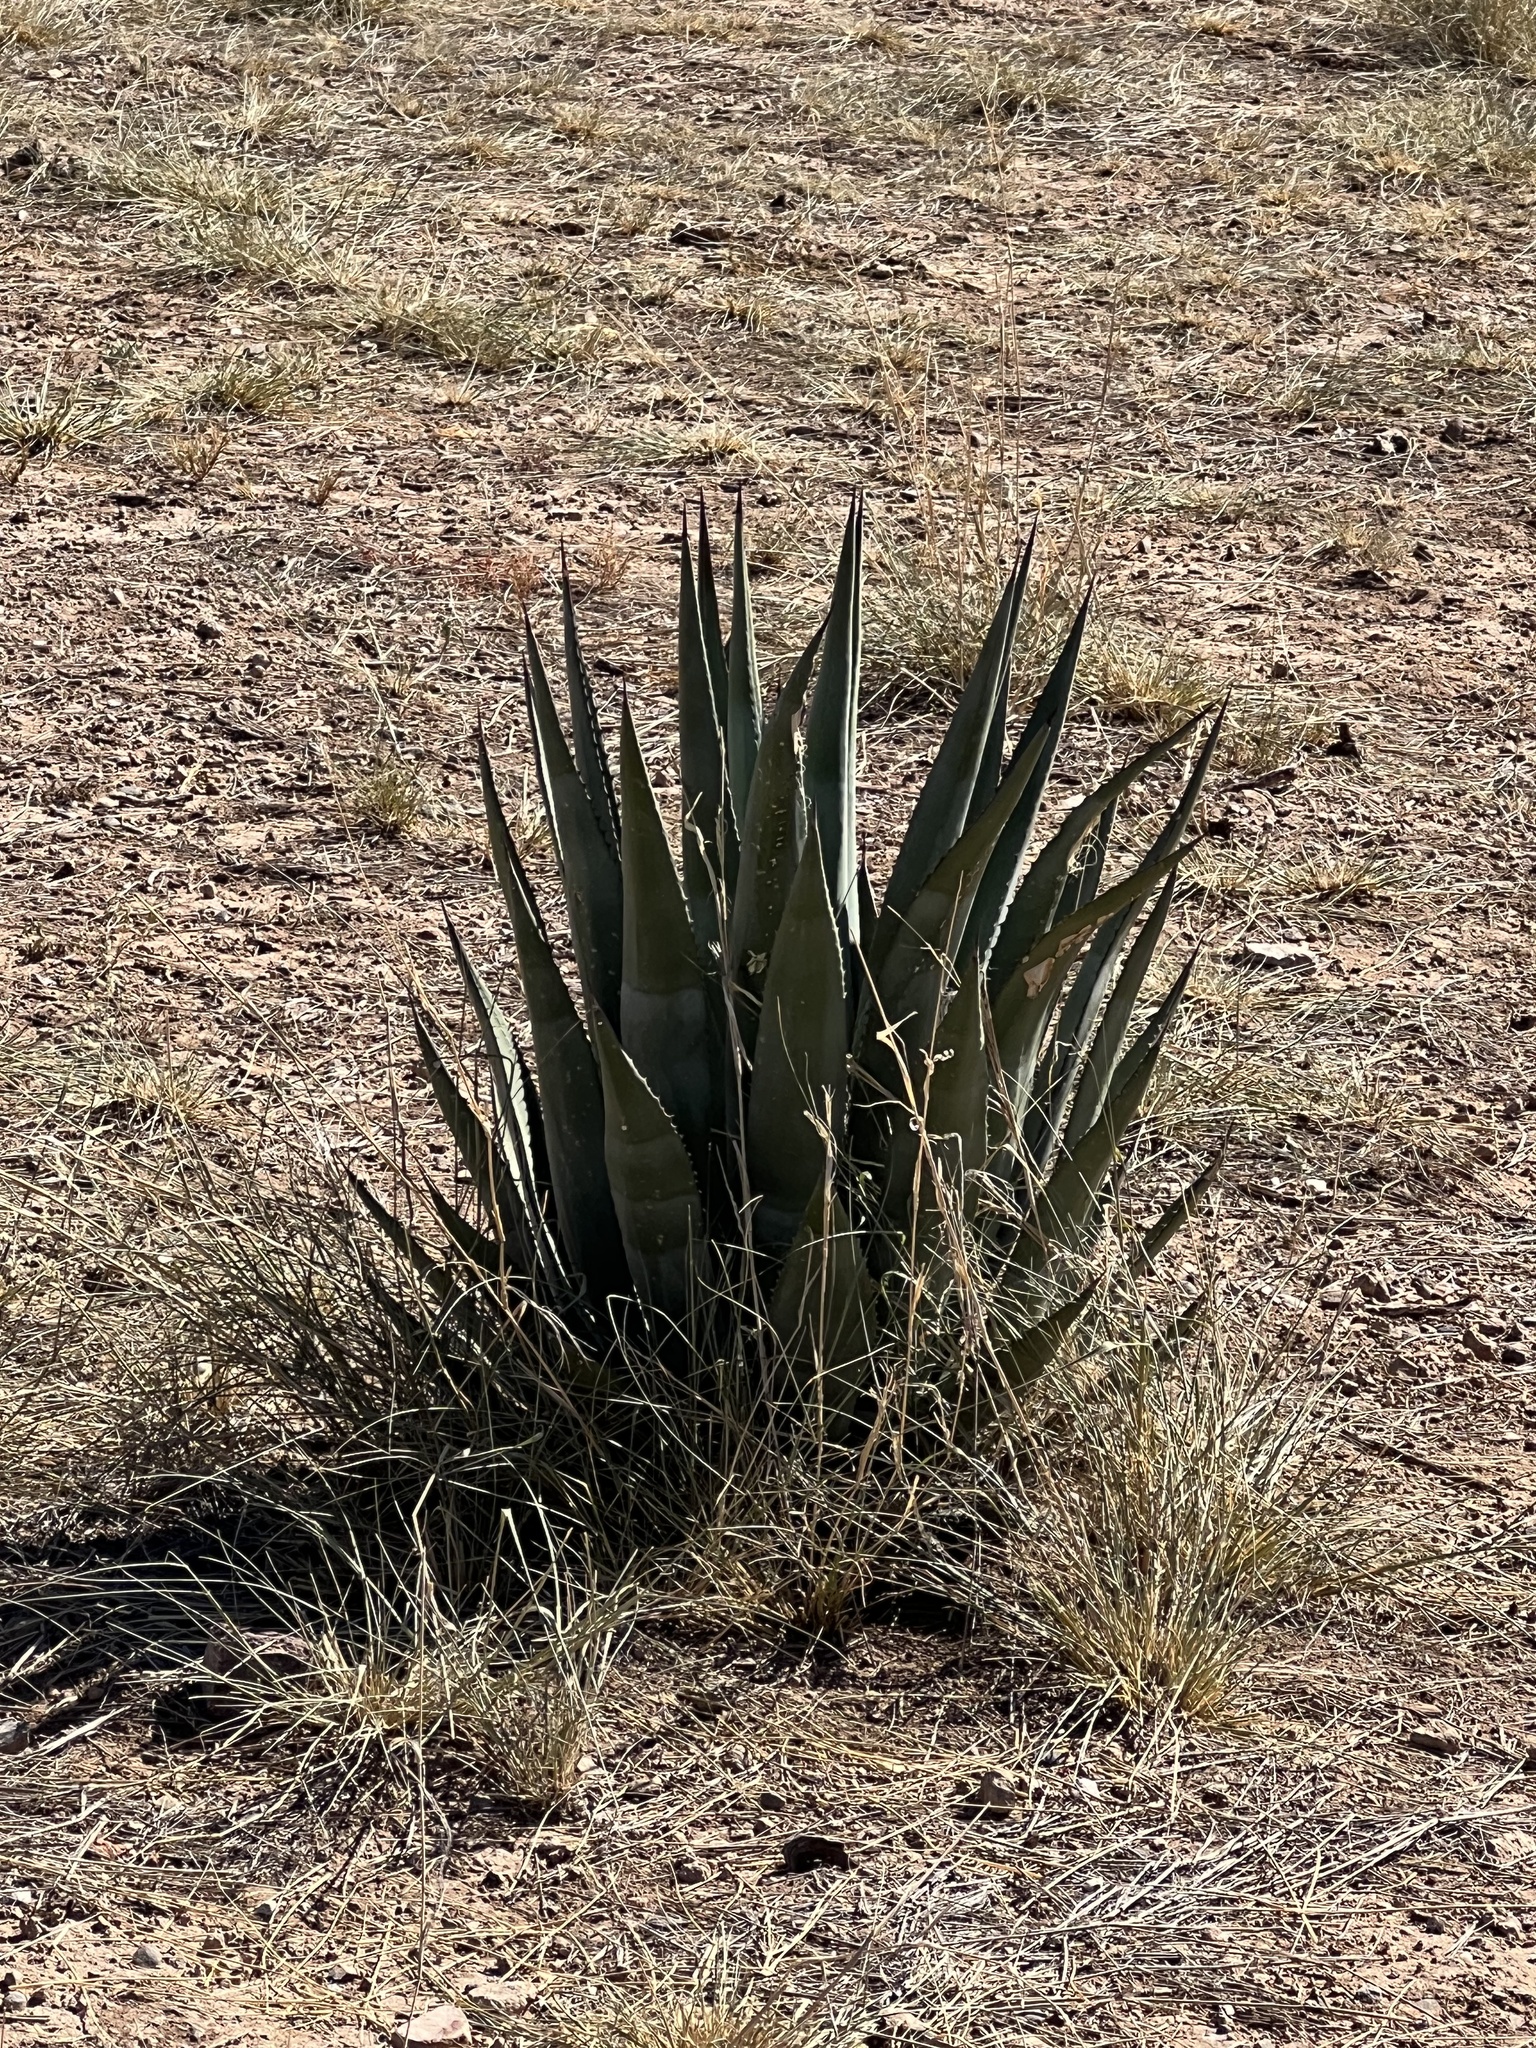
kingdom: Plantae
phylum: Tracheophyta
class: Liliopsida
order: Asparagales
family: Asparagaceae
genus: Agave
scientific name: Agave palmeri
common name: Palmer agave
